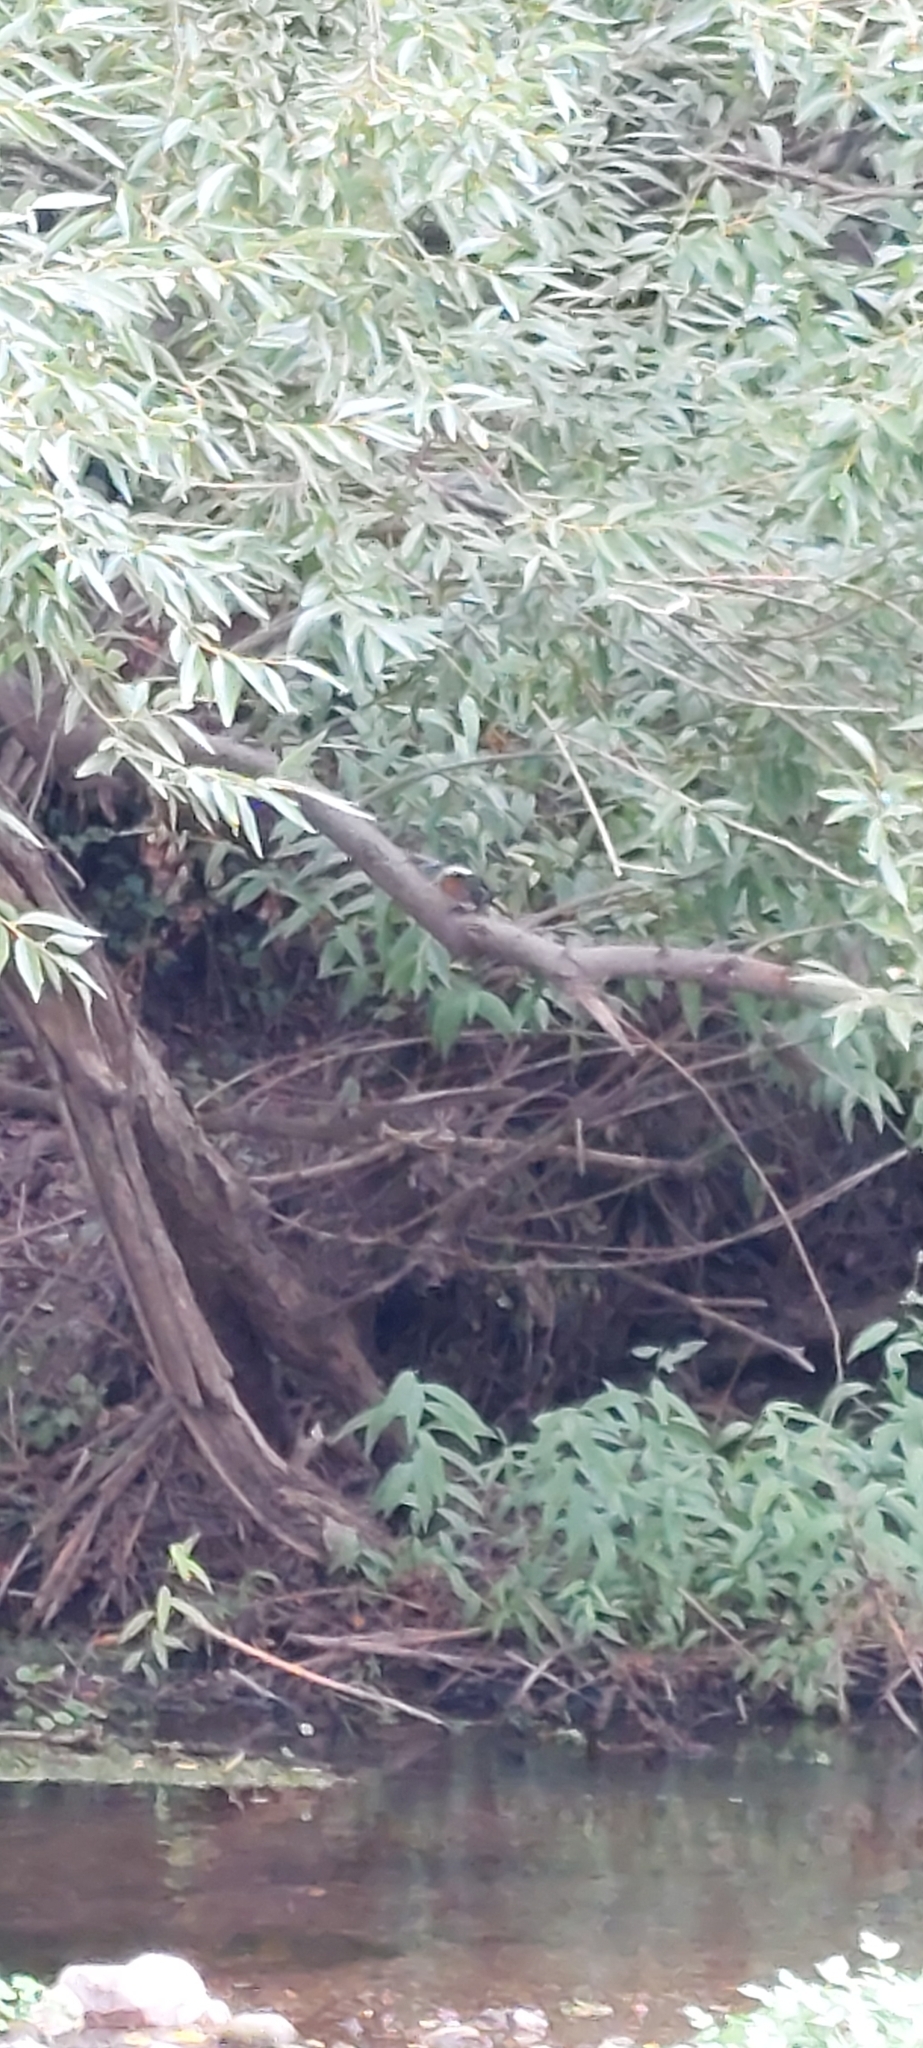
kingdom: Animalia
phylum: Chordata
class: Aves
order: Coraciiformes
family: Alcedinidae
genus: Megaceryle
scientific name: Megaceryle torquata
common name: Ringed kingfisher
